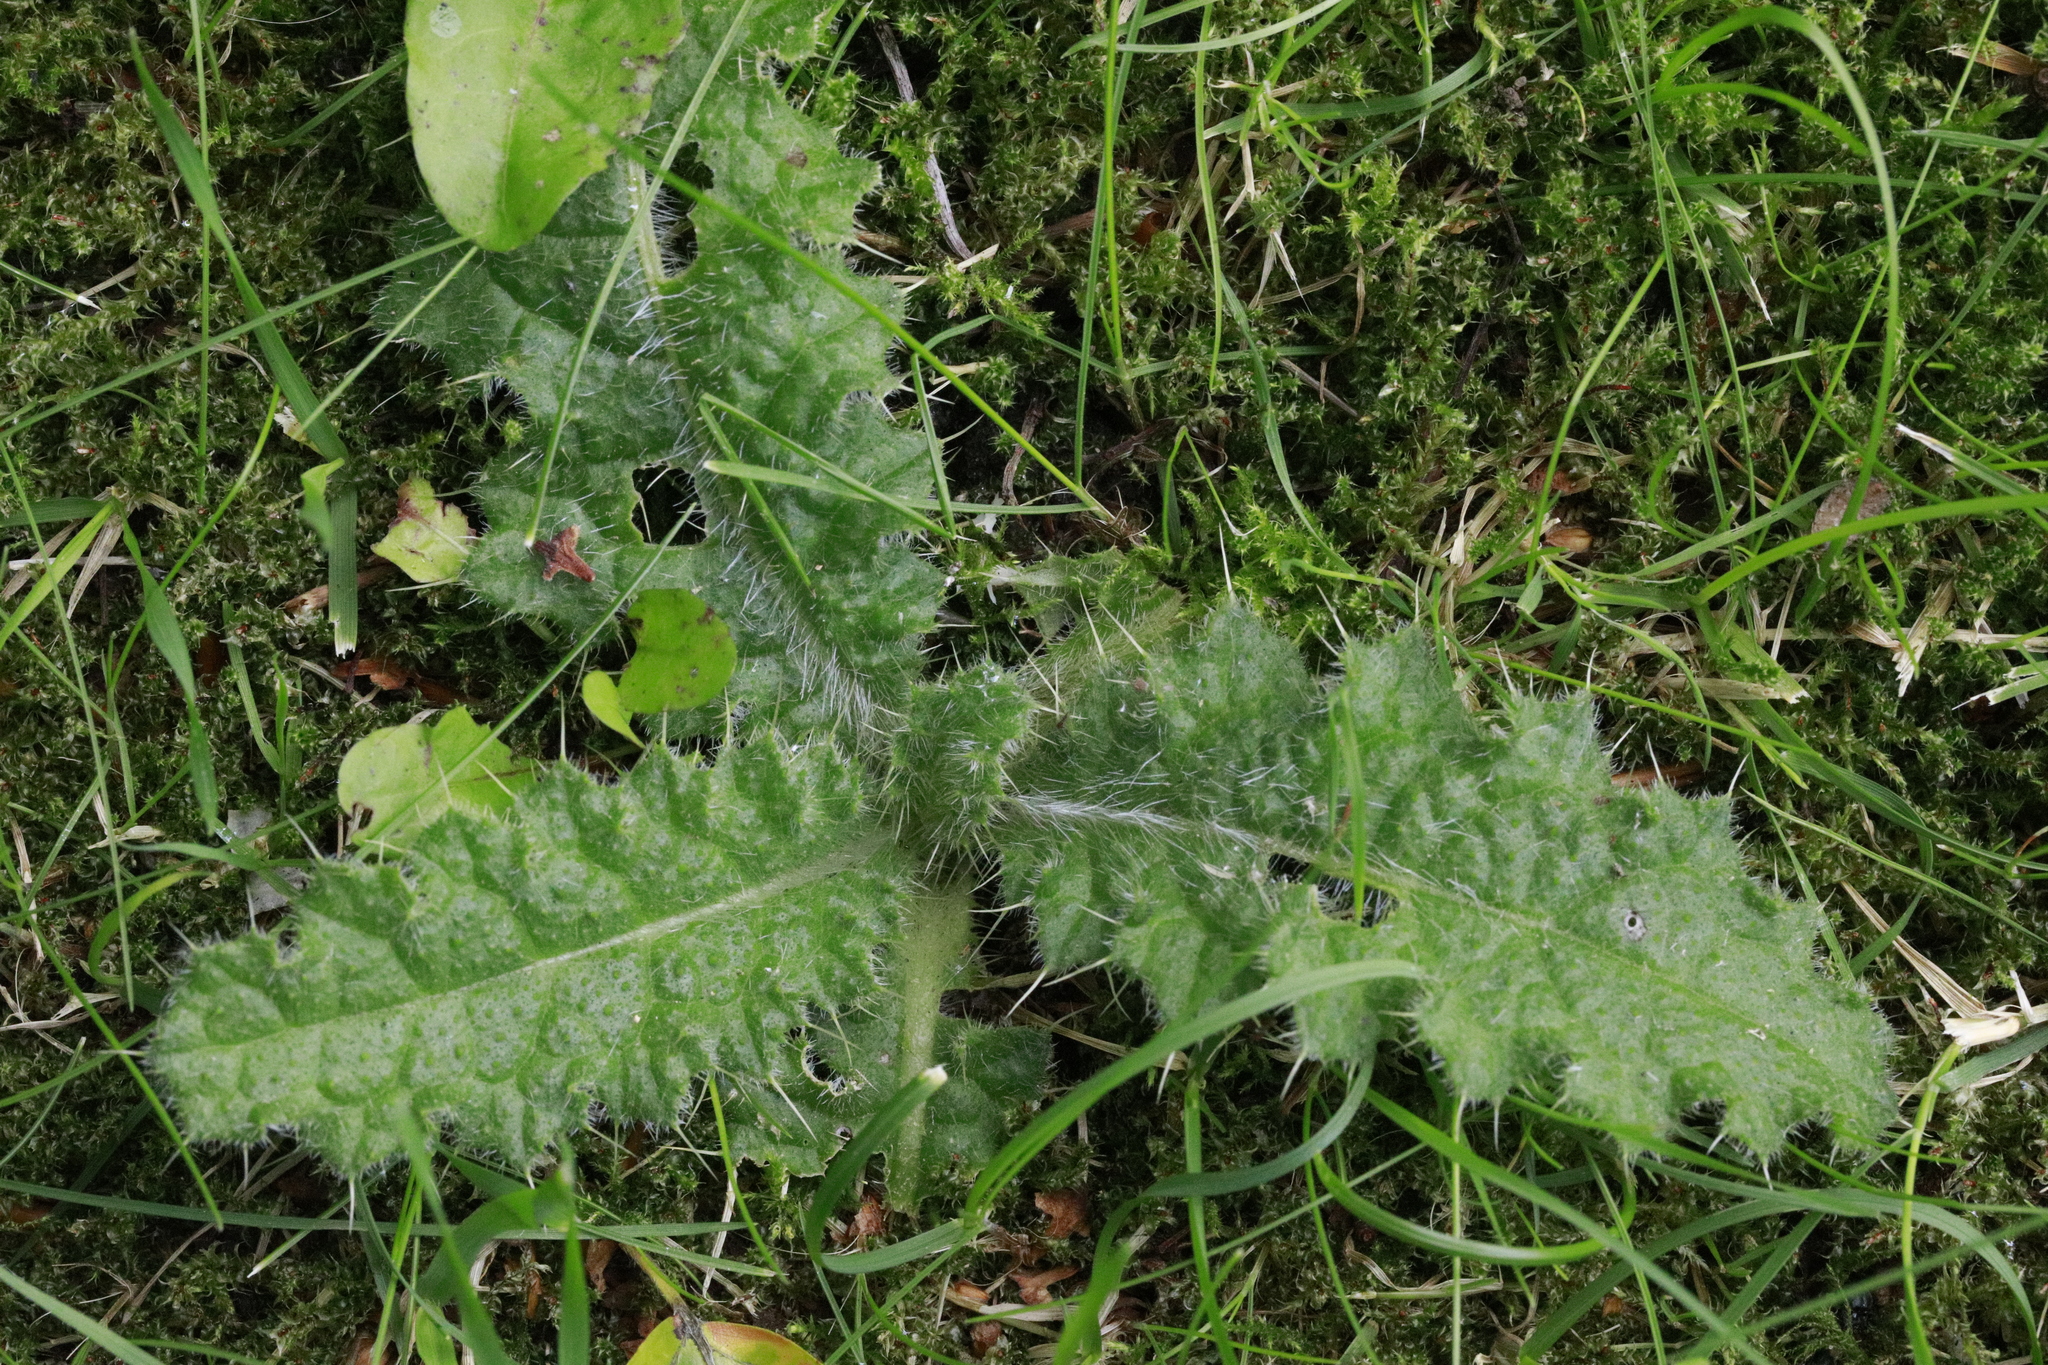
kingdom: Plantae
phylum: Tracheophyta
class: Magnoliopsida
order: Asterales
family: Asteraceae
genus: Cirsium
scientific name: Cirsium vulgare
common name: Bull thistle
